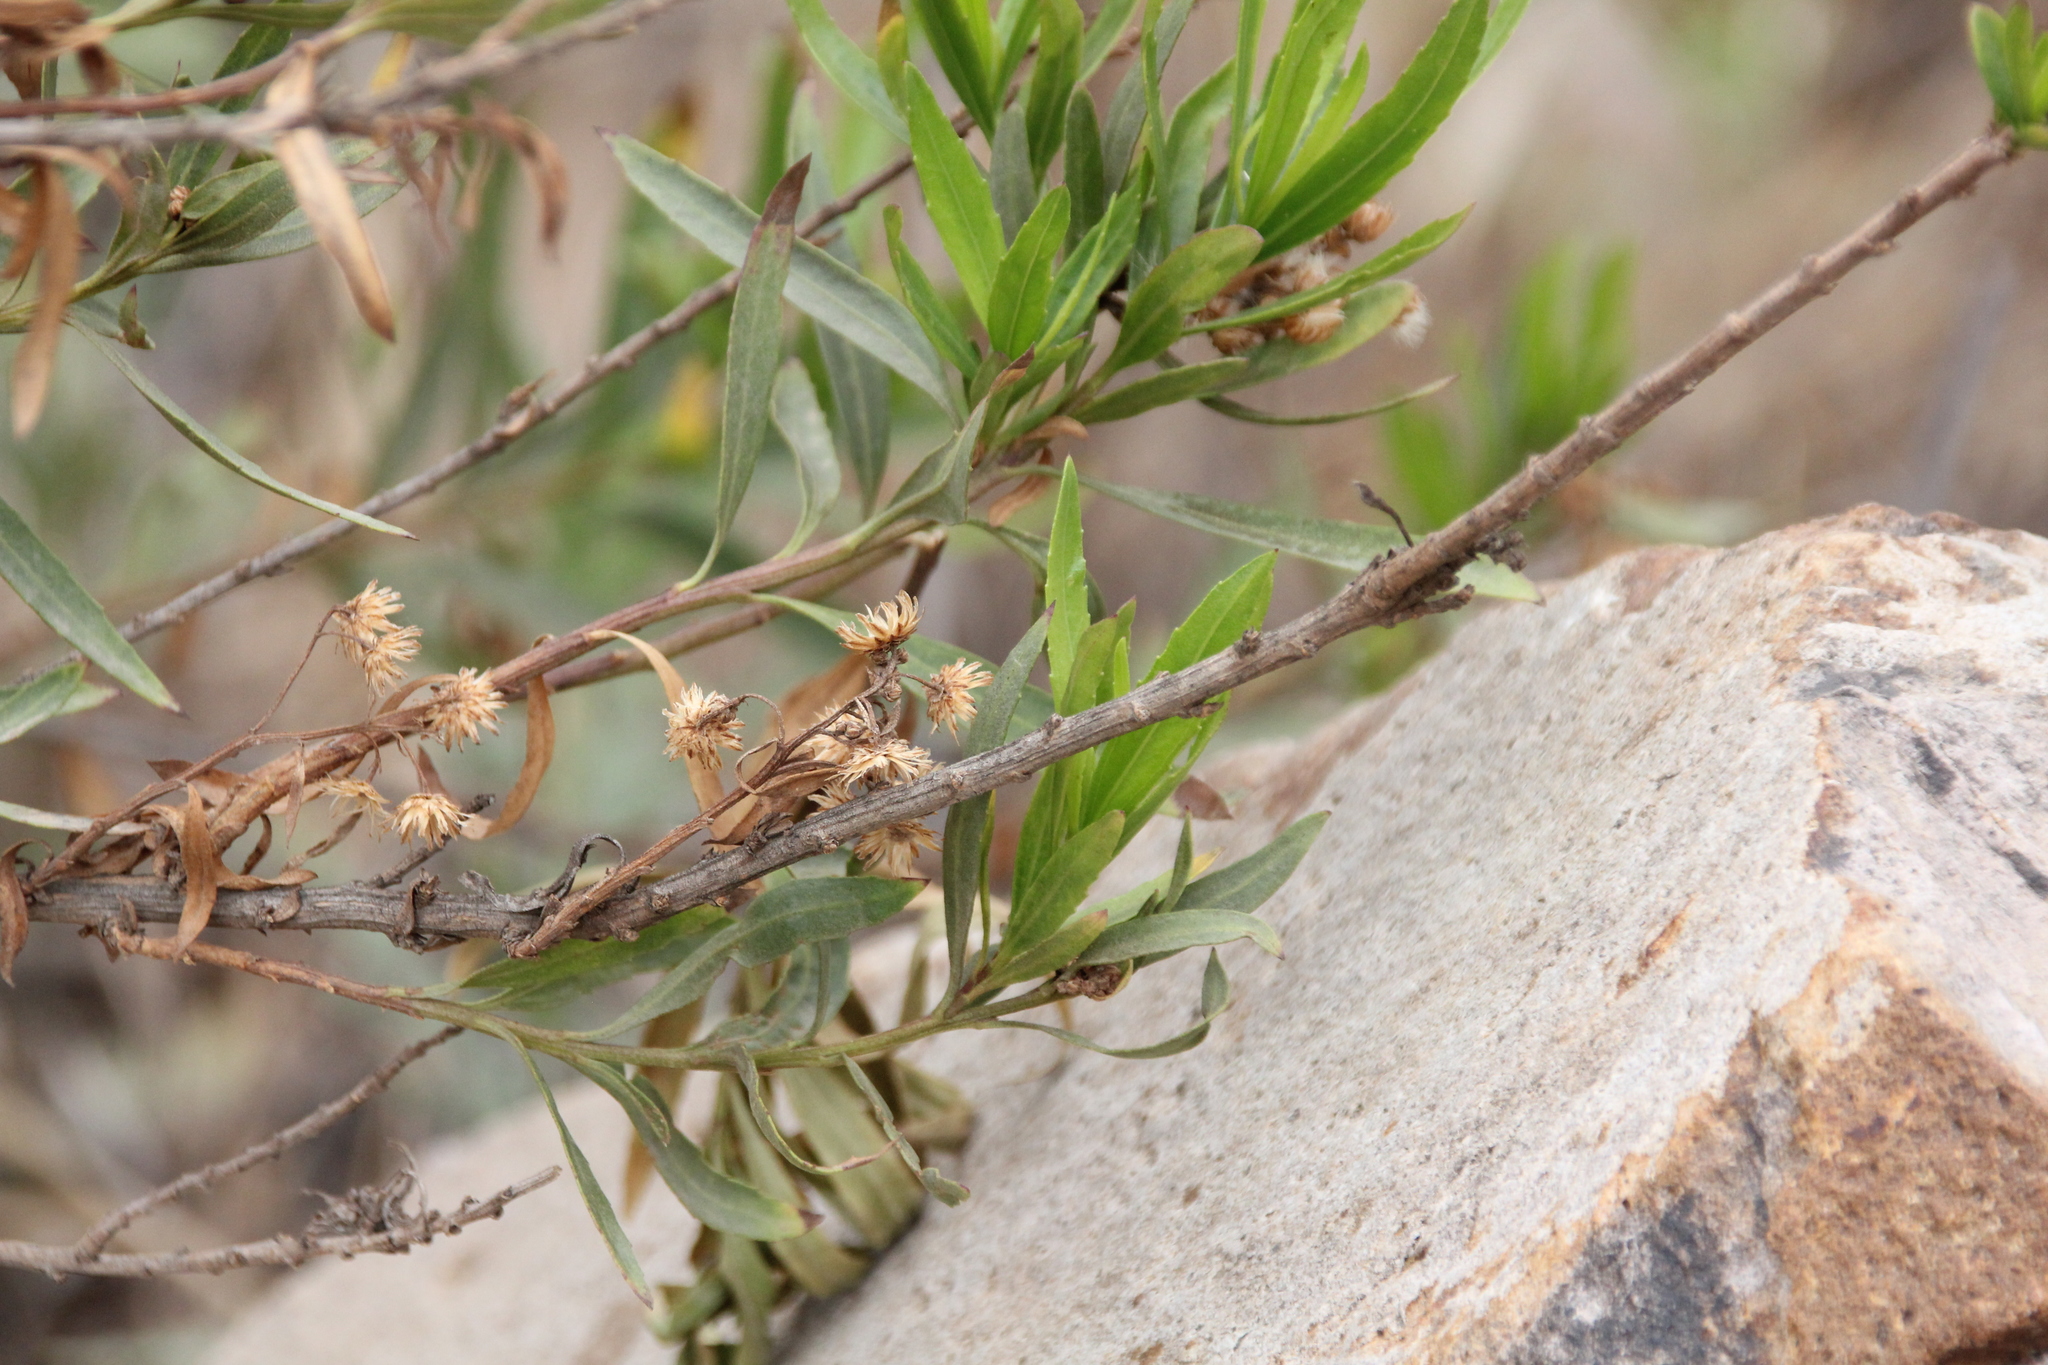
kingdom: Plantae
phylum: Tracheophyta
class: Magnoliopsida
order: Asterales
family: Asteraceae
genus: Baccharis
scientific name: Baccharis salicifolia
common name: Sticky baccharis
